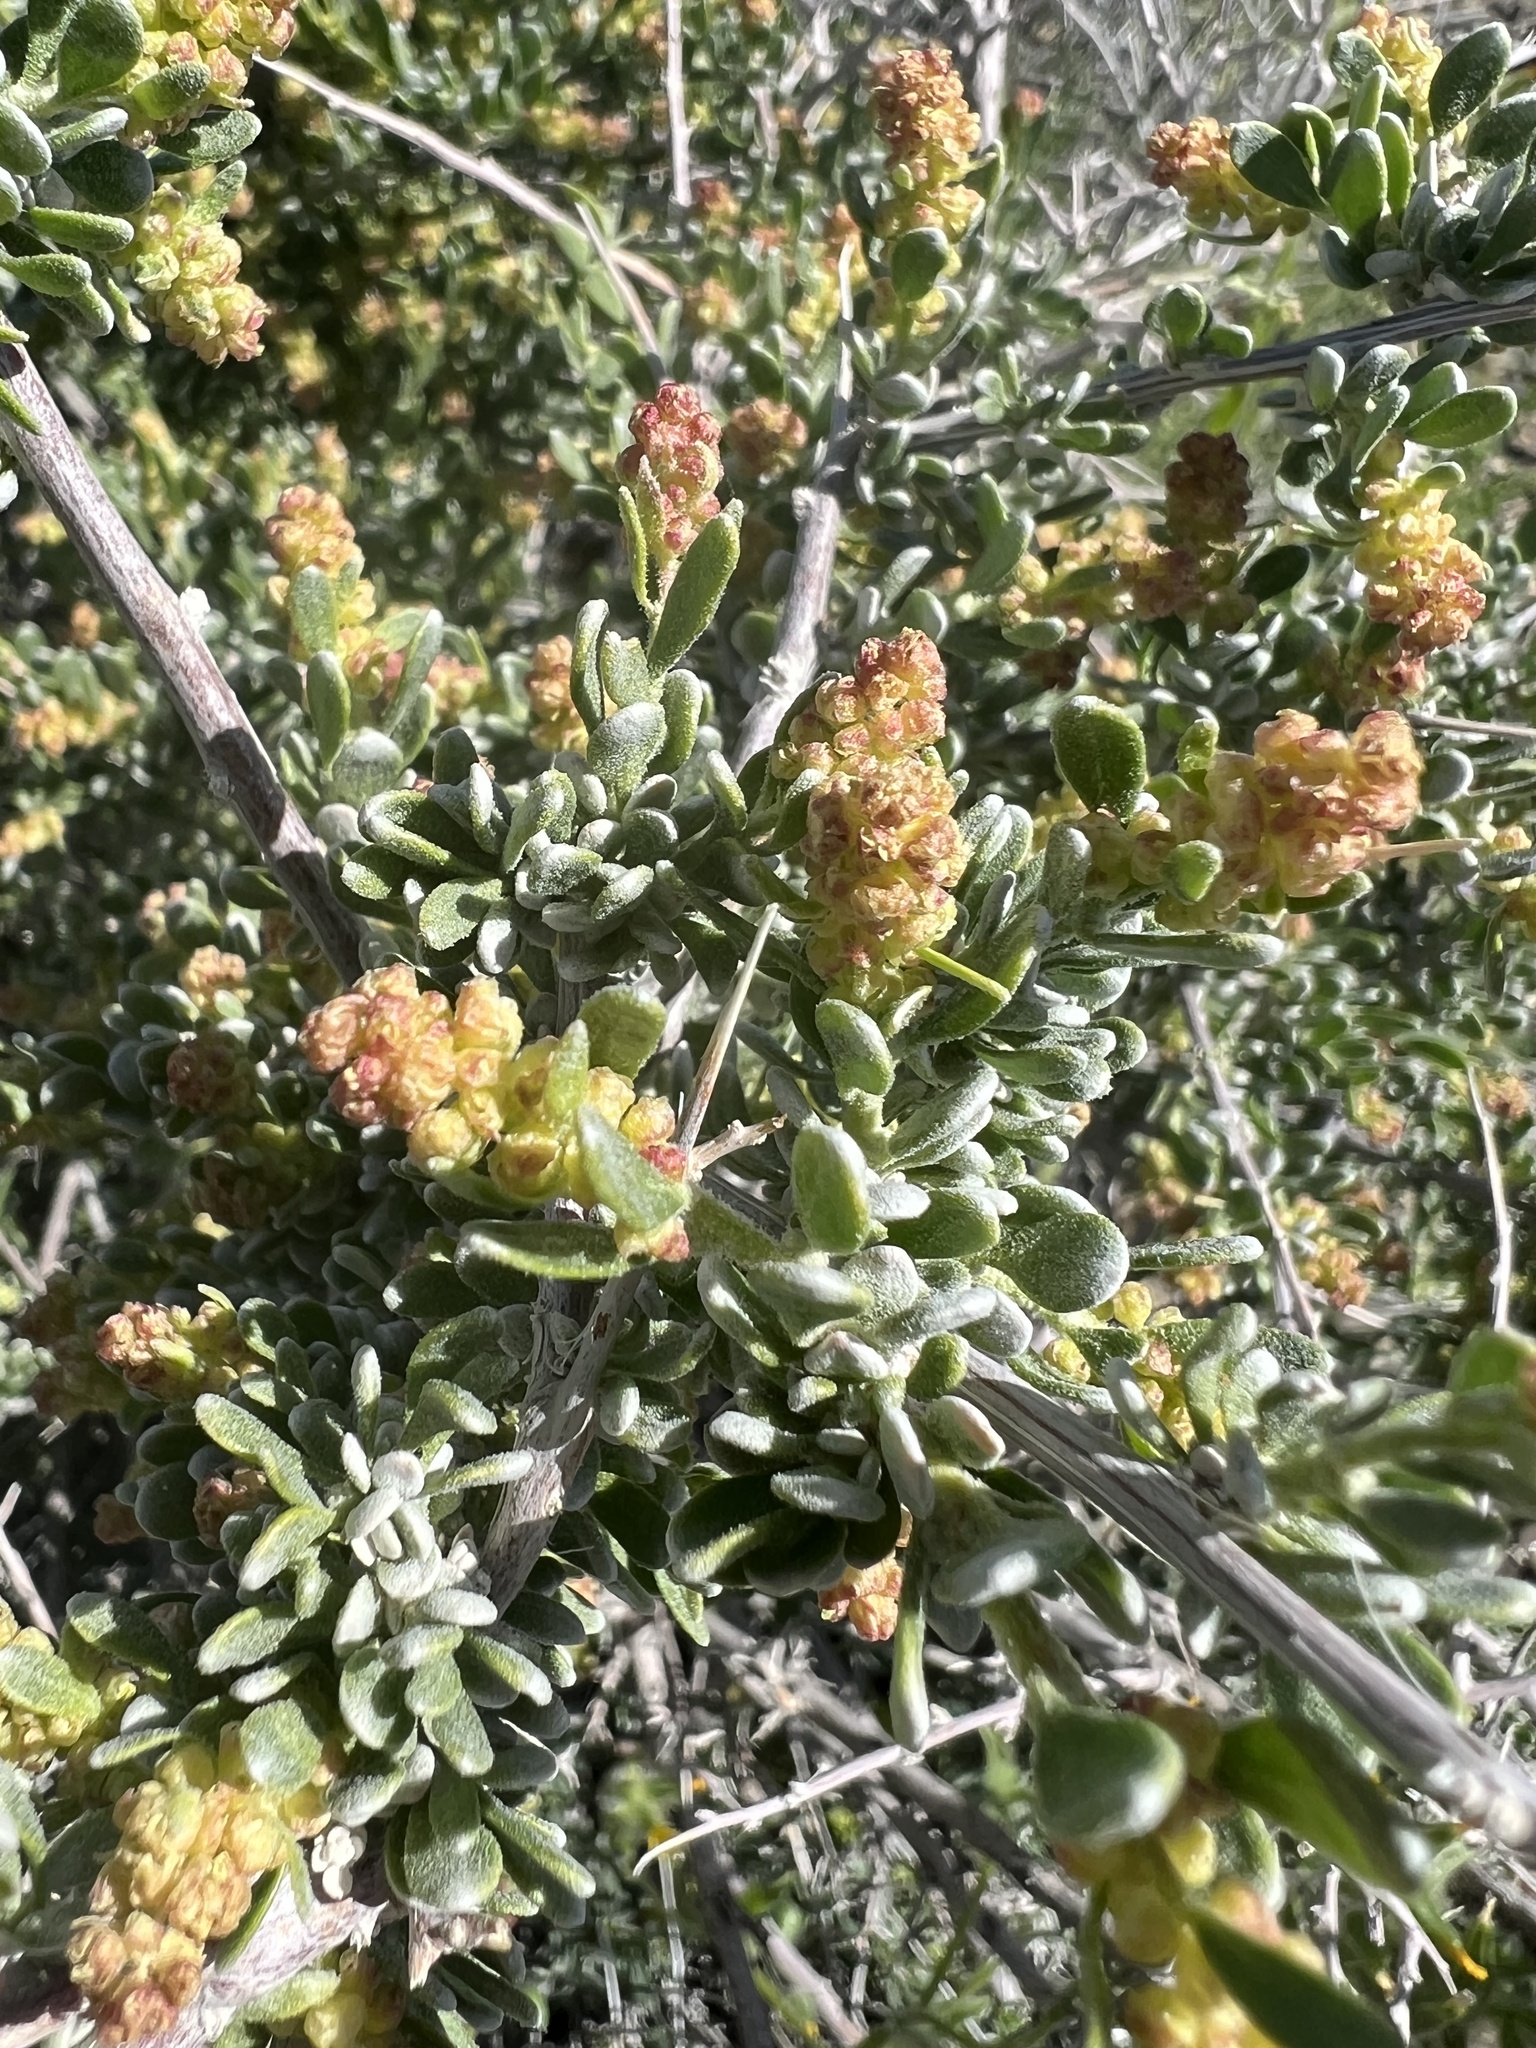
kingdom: Plantae
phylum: Tracheophyta
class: Magnoliopsida
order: Caryophyllales
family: Amaranthaceae
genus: Grayia
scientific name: Grayia spinosa
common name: Spiny hopsage
